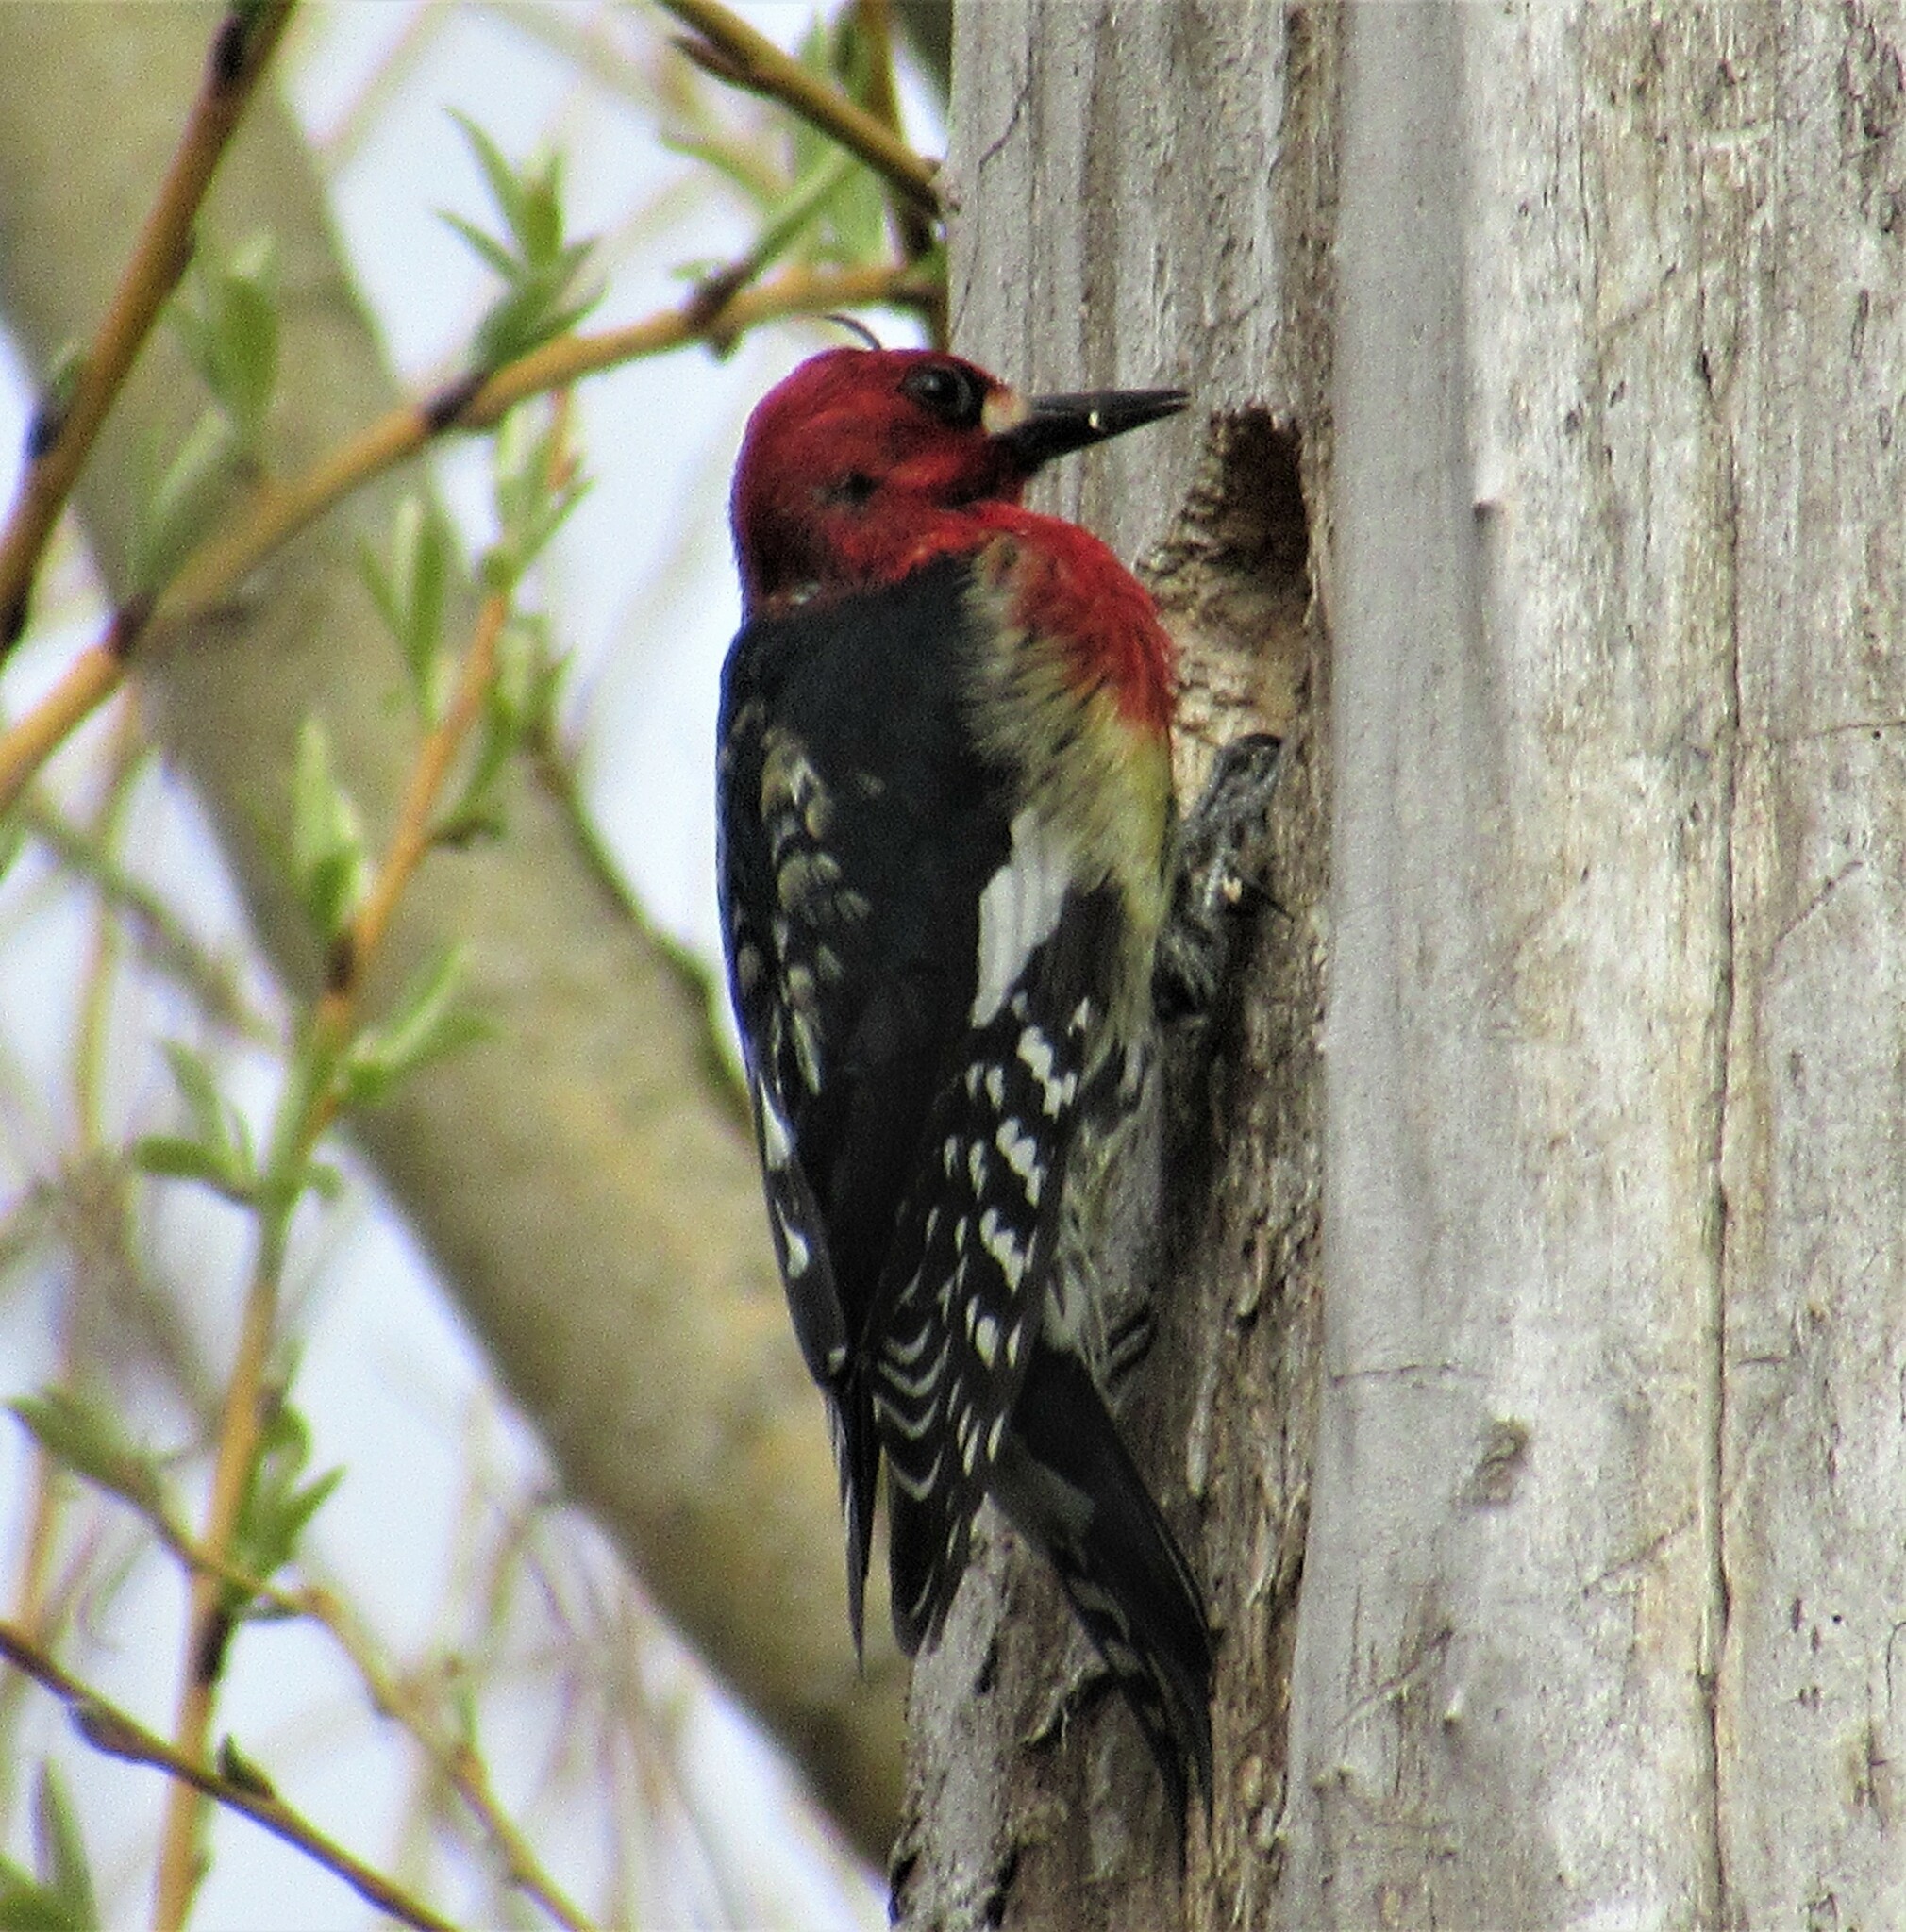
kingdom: Animalia
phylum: Chordata
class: Aves
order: Piciformes
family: Picidae
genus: Sphyrapicus
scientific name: Sphyrapicus ruber
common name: Red-breasted sapsucker
